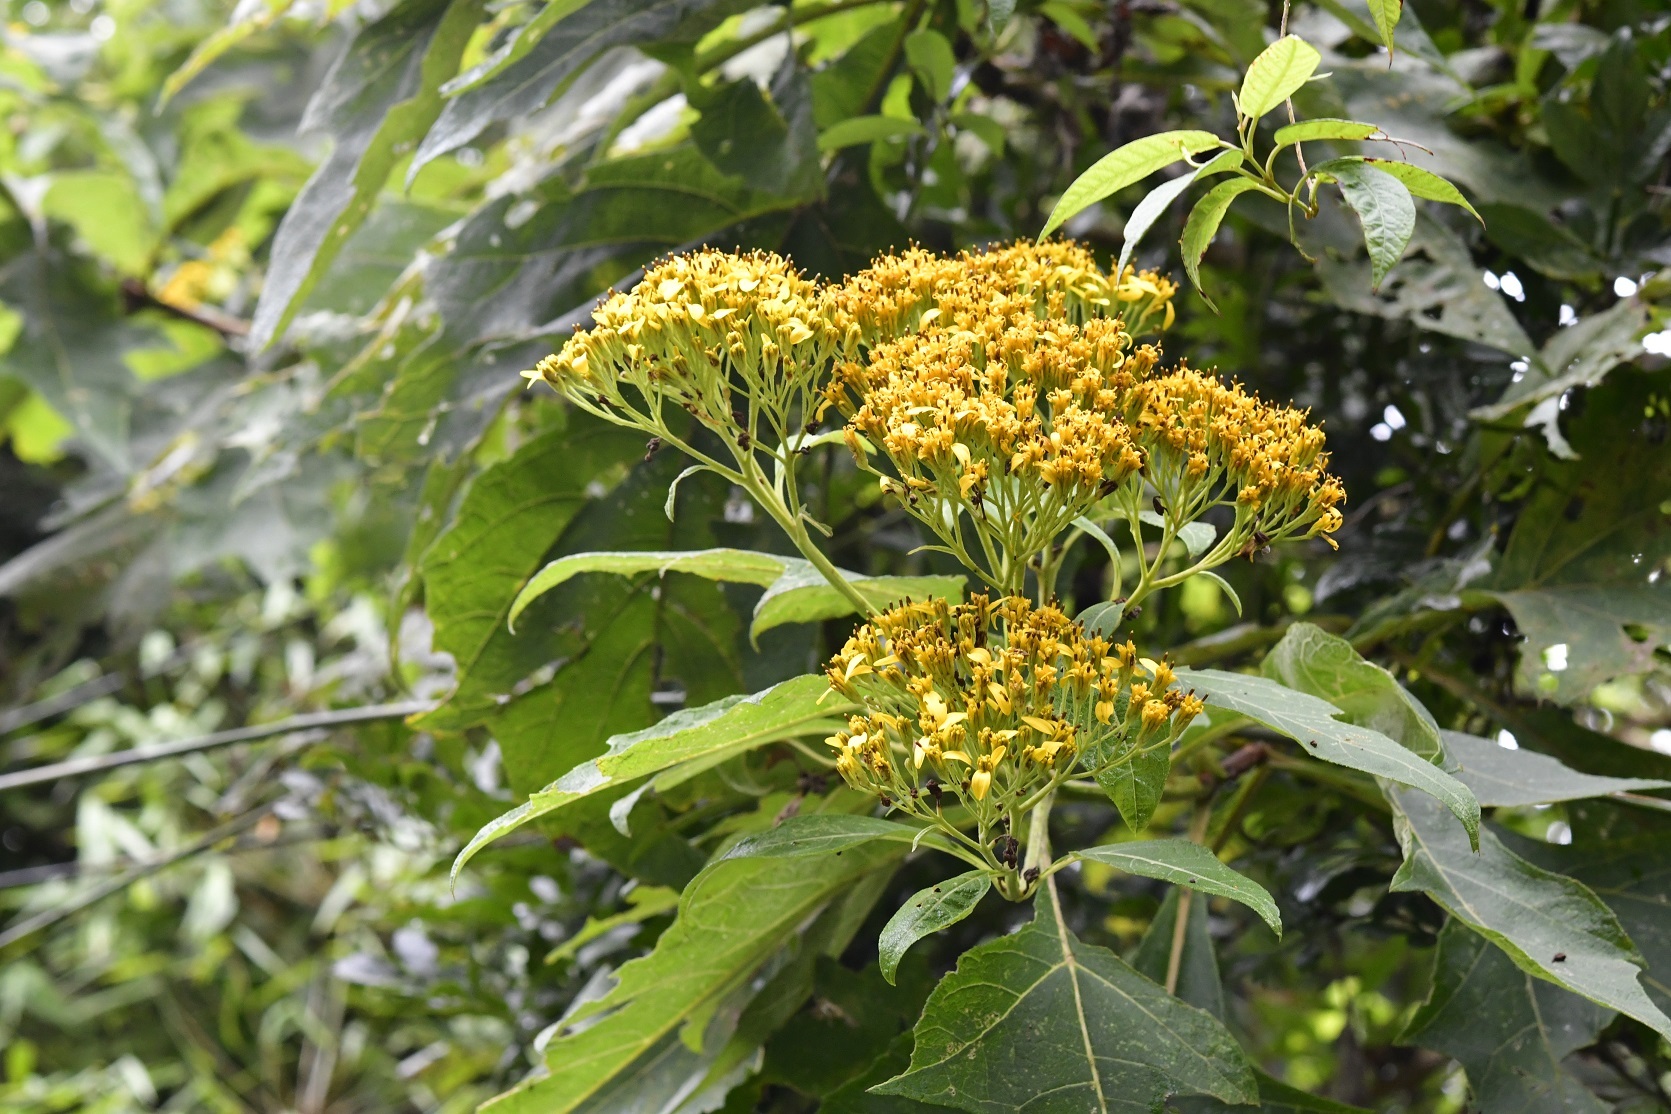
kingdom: Plantae
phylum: Tracheophyta
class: Magnoliopsida
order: Asterales
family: Asteraceae
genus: Verbesina
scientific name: Verbesina breedlovei
